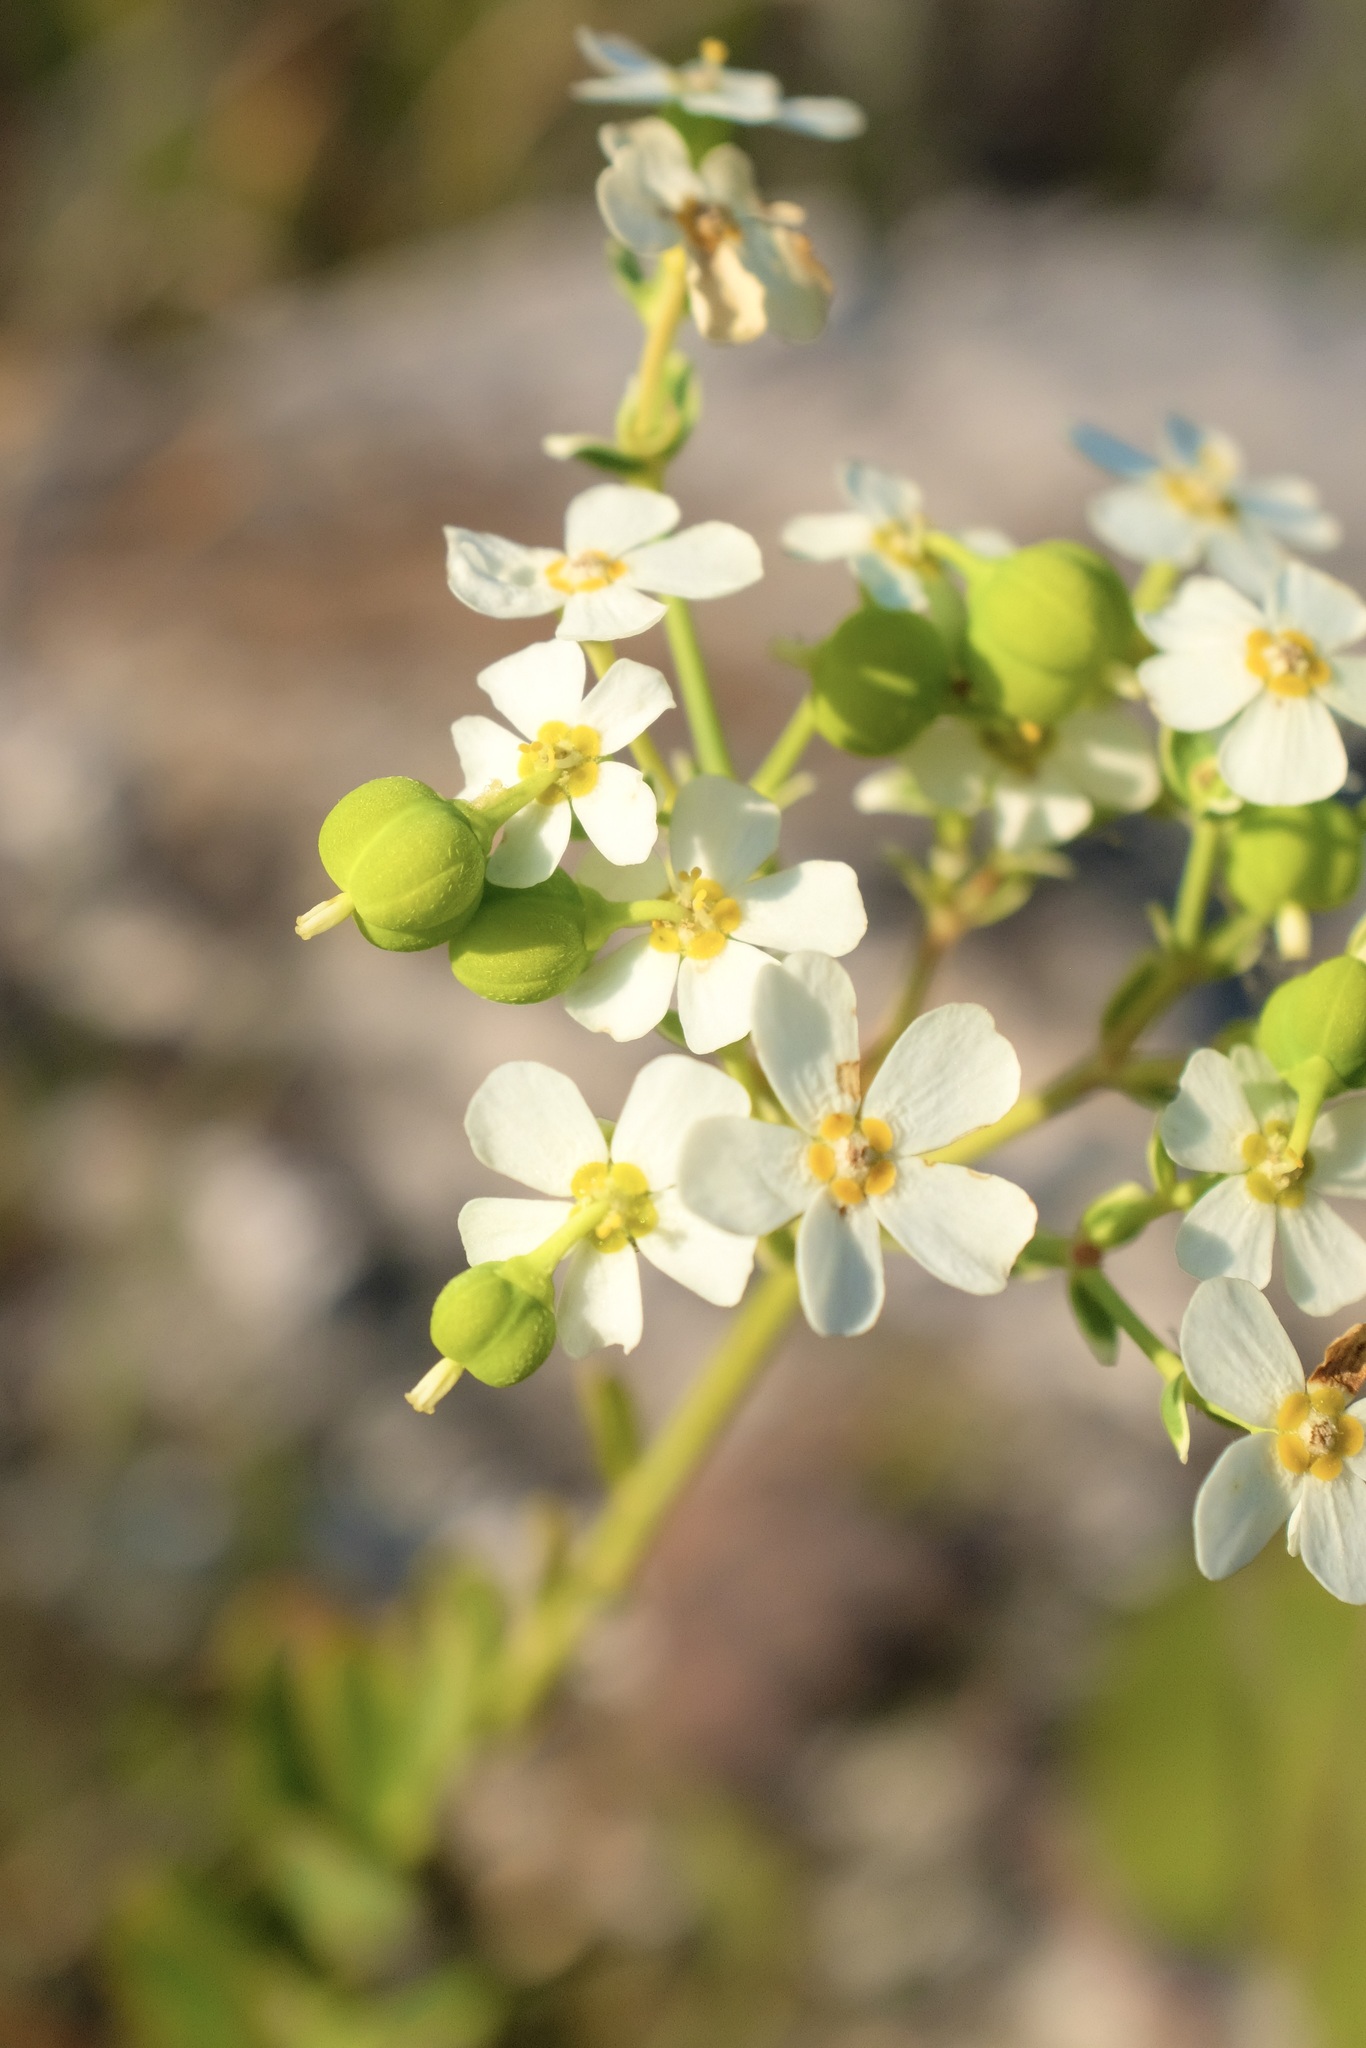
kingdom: Plantae
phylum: Tracheophyta
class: Magnoliopsida
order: Malpighiales
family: Euphorbiaceae
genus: Euphorbia
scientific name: Euphorbia corollata
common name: Flowering spurge
